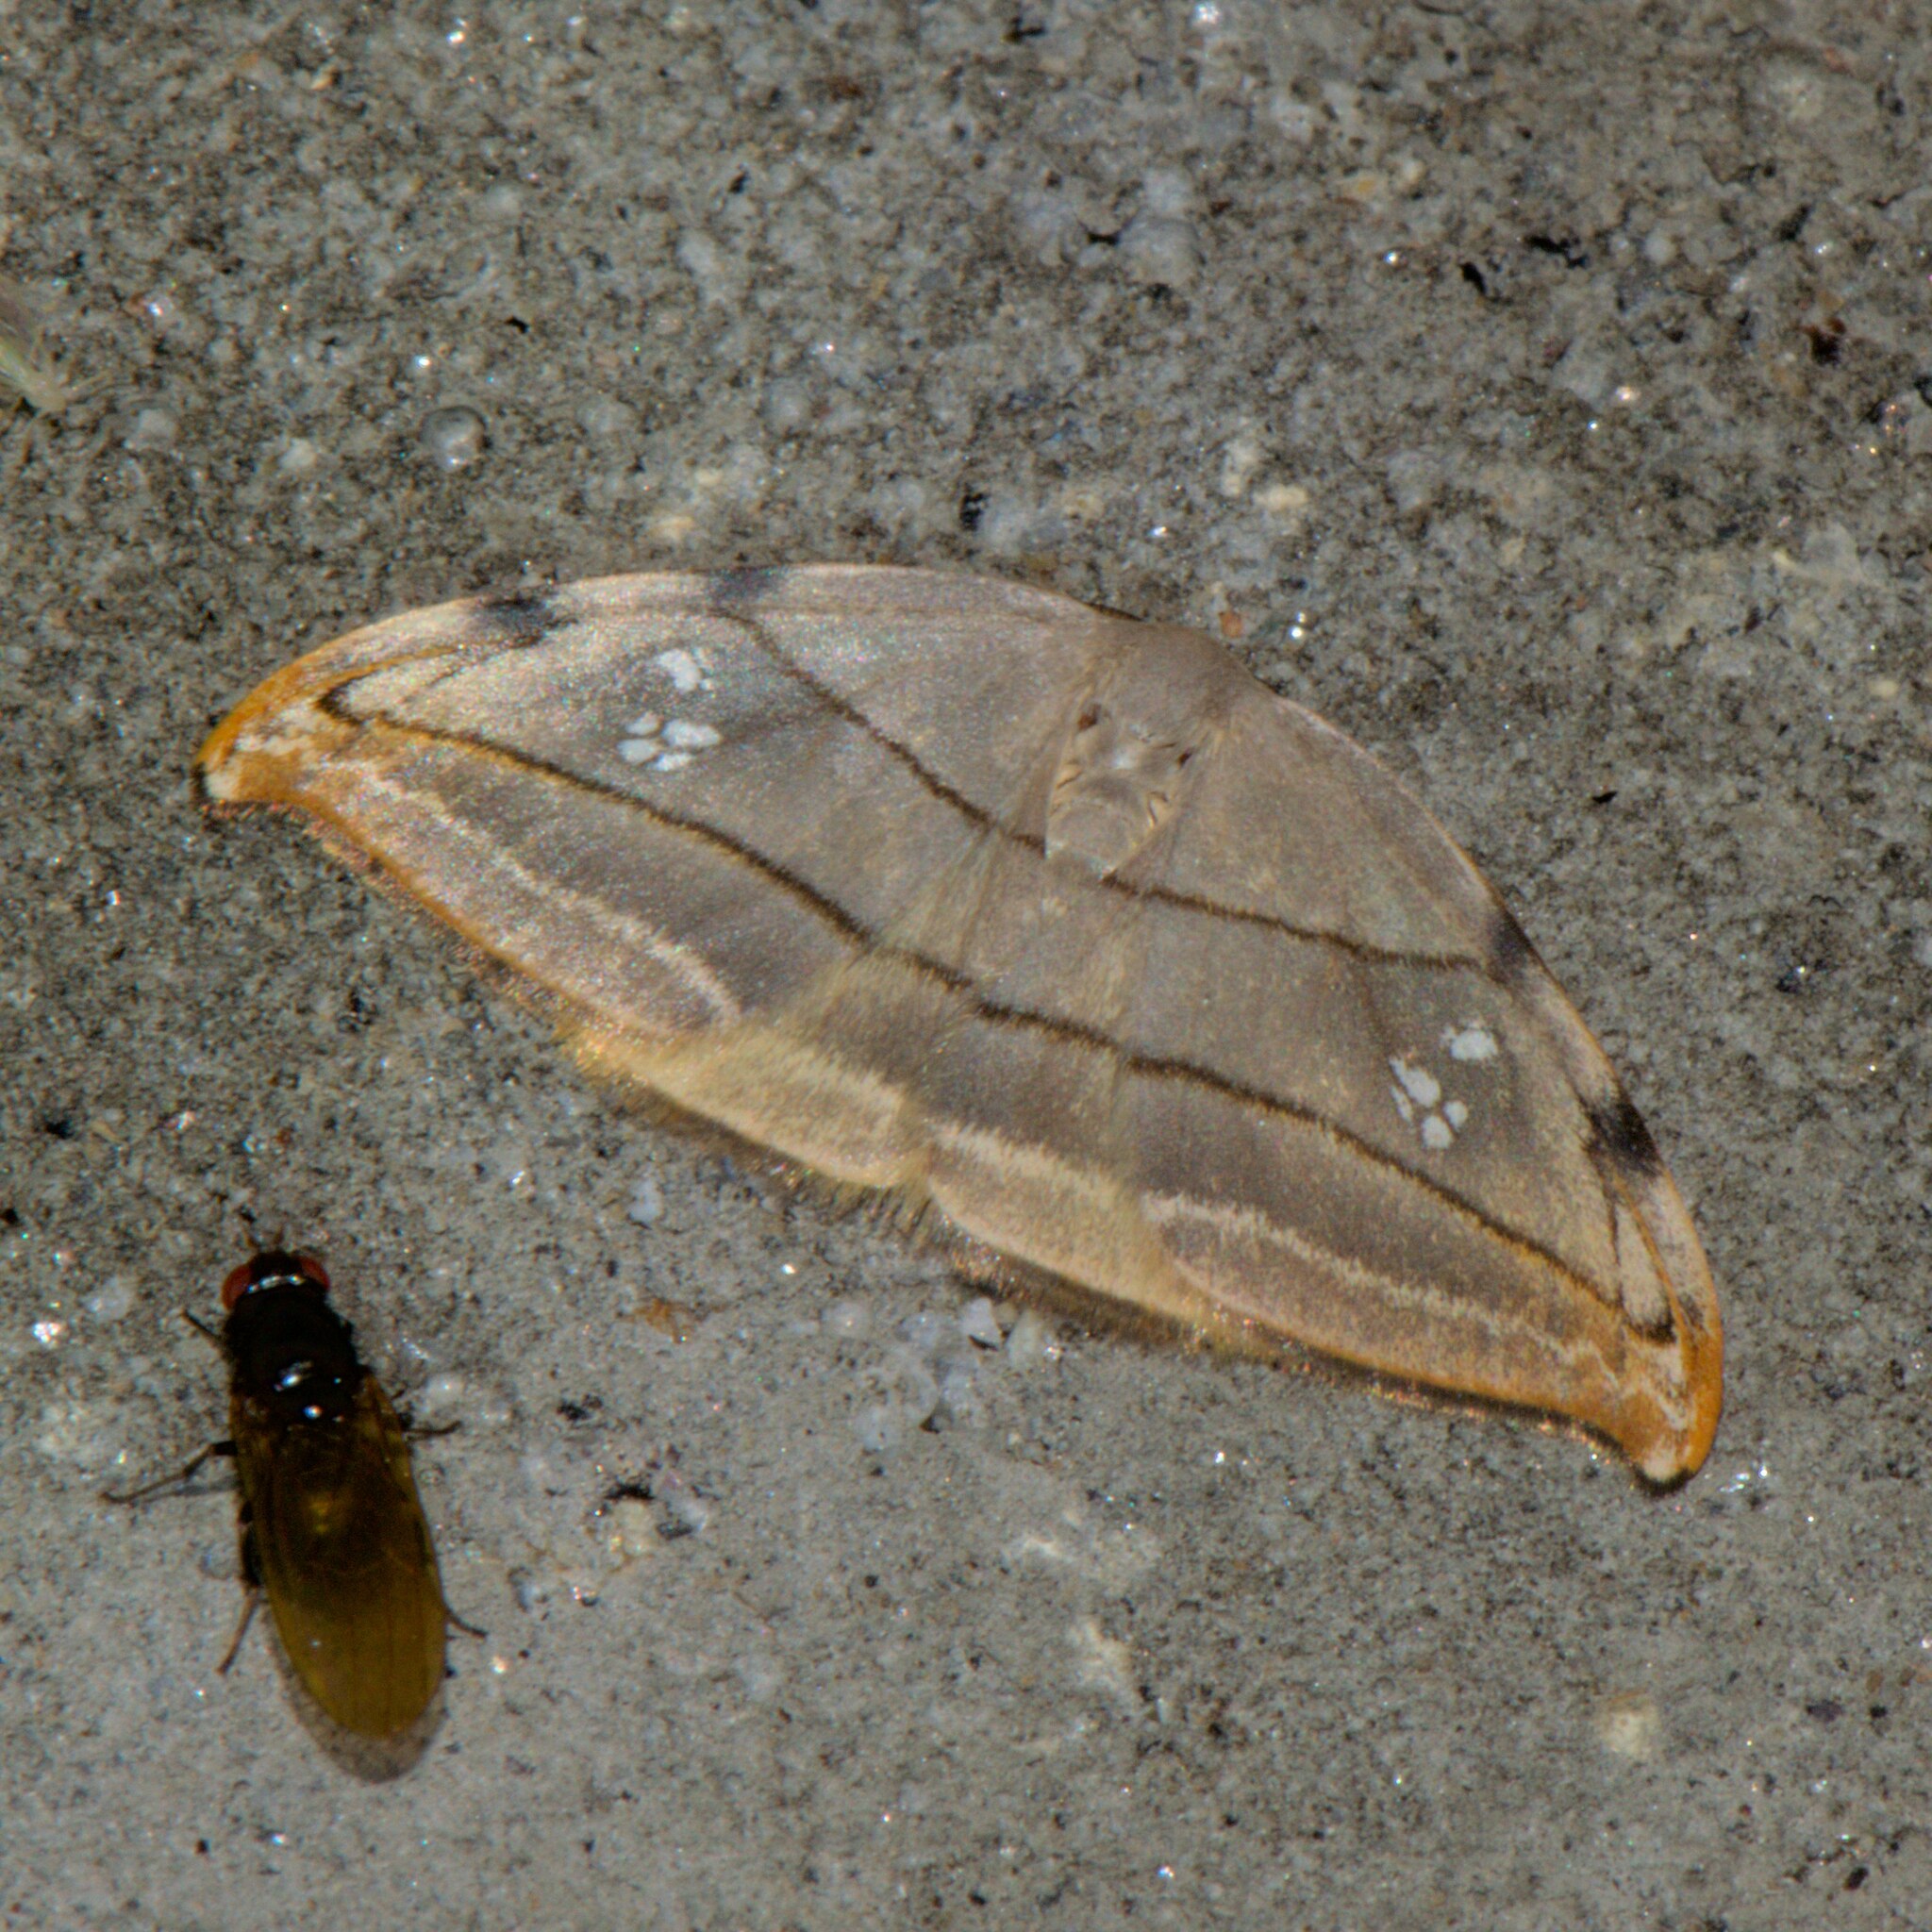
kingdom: Animalia
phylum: Arthropoda
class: Insecta
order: Lepidoptera
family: Drepanidae
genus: Nordstromia
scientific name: Nordstromia vira
